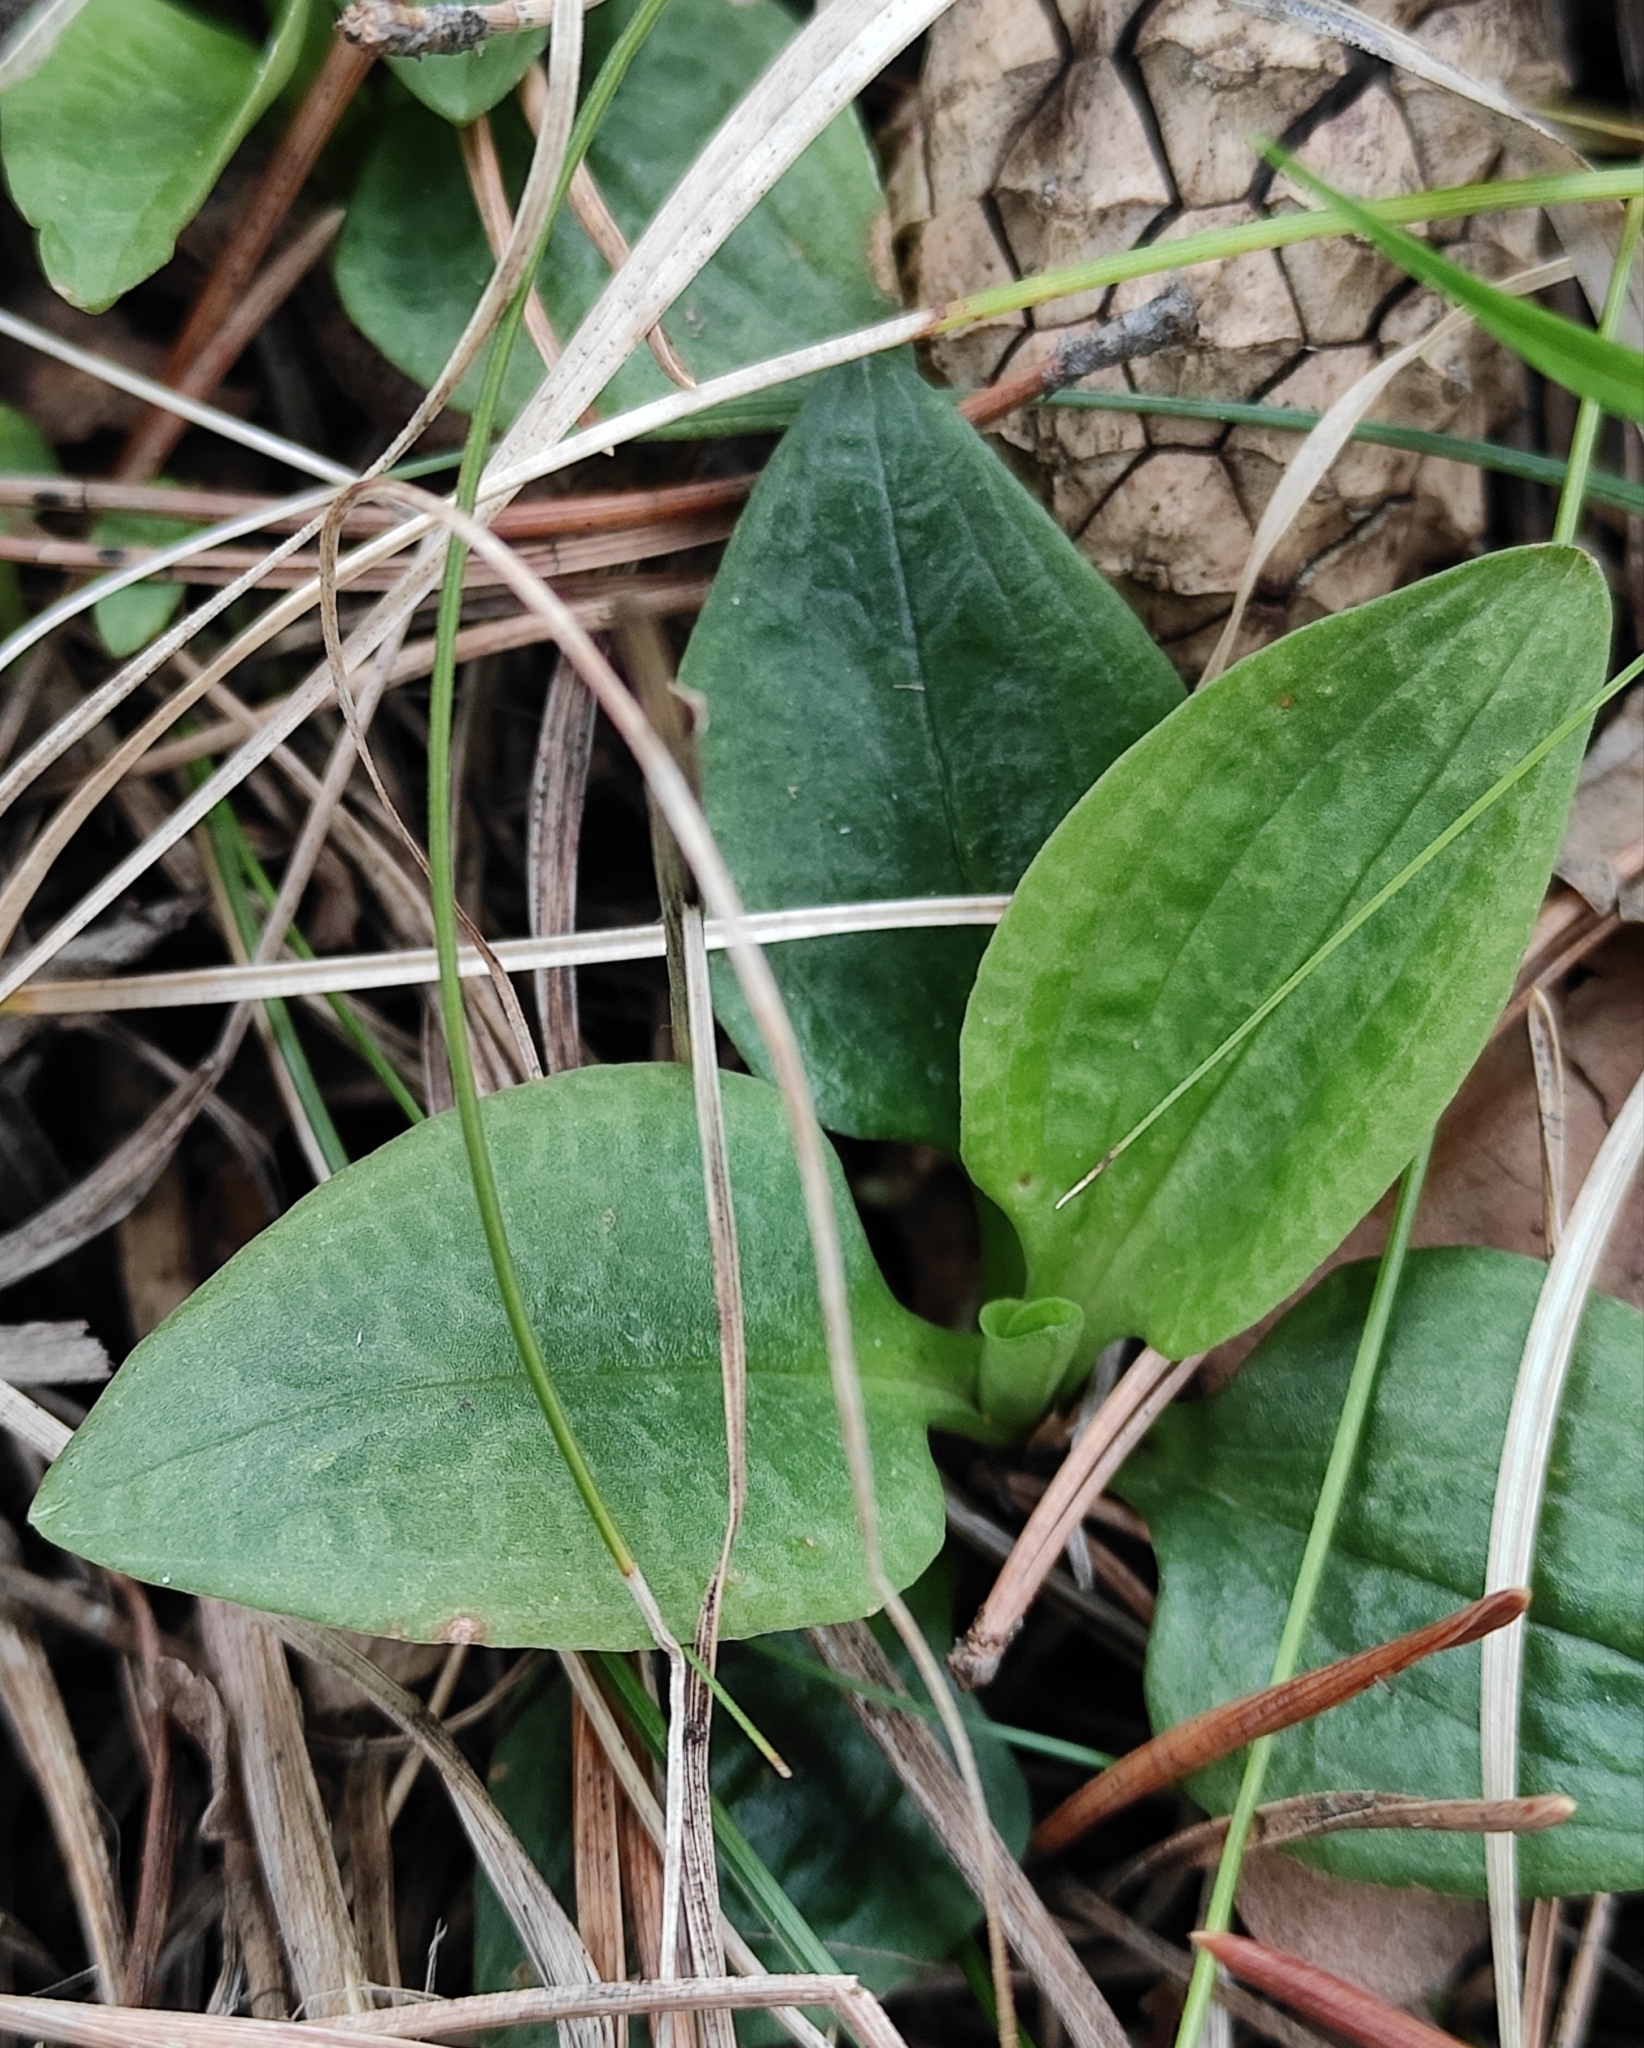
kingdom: Plantae
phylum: Tracheophyta
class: Liliopsida
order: Asparagales
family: Orchidaceae
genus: Goodyera
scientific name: Goodyera repens
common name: Creeping lady's-tresses
